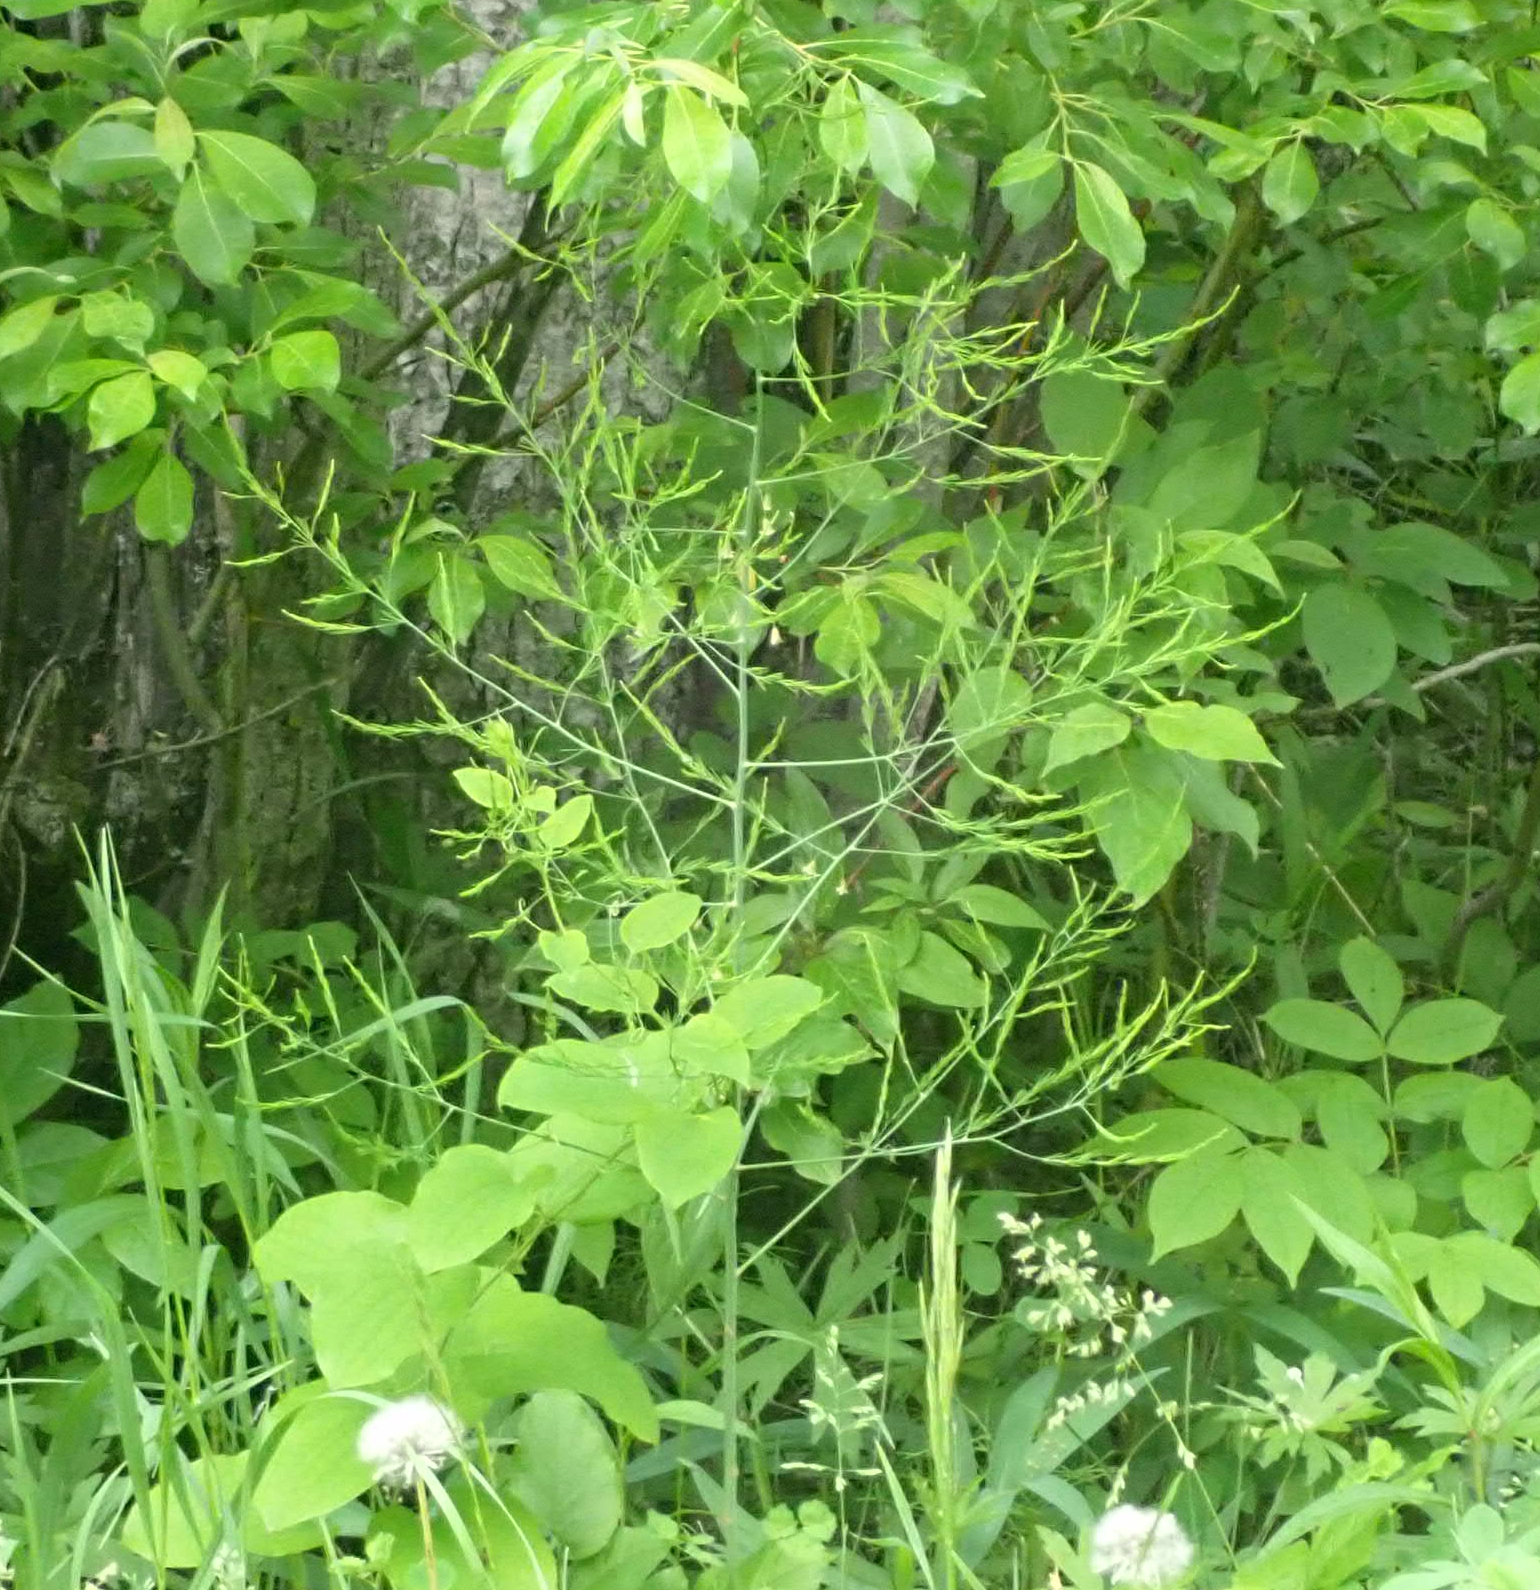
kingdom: Plantae
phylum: Tracheophyta
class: Liliopsida
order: Asparagales
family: Asparagaceae
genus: Asparagus
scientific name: Asparagus officinalis
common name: Garden asparagus
